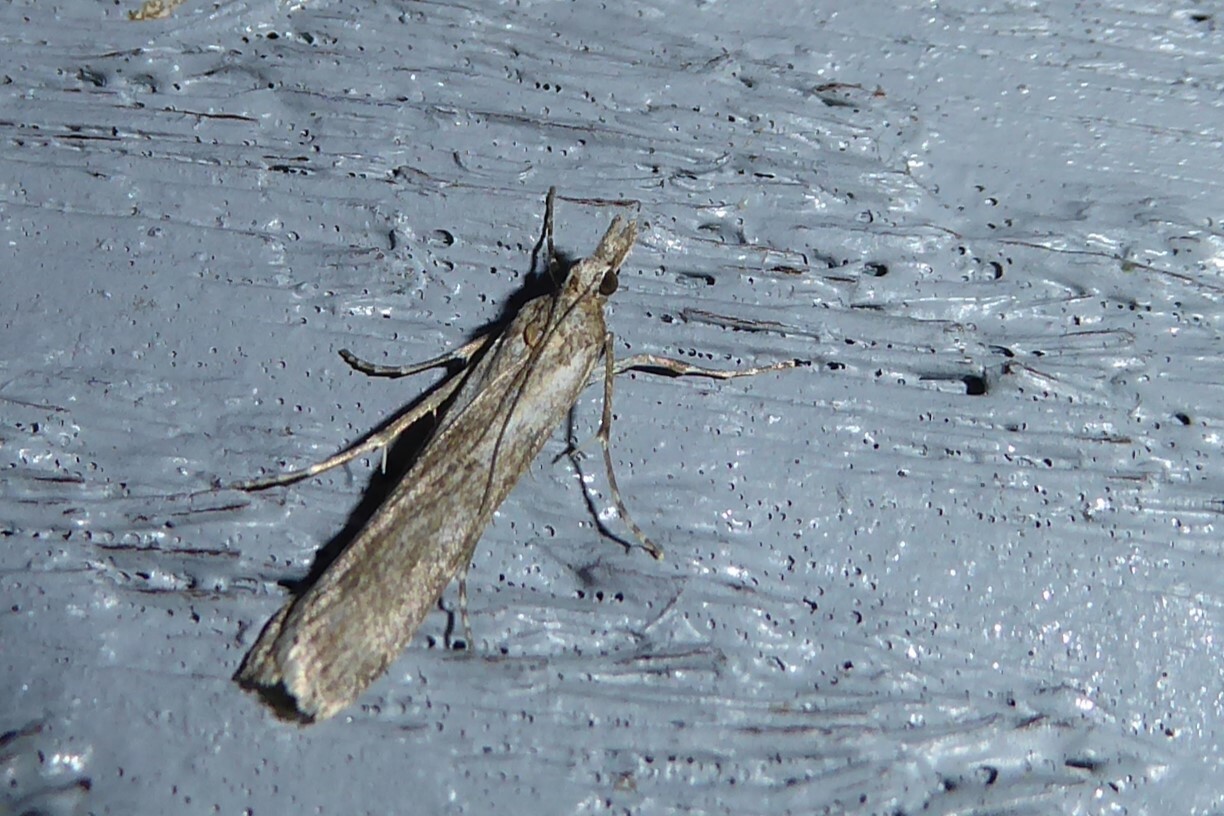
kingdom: Animalia
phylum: Arthropoda
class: Insecta
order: Lepidoptera
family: Crambidae
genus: Eudonia
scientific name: Eudonia leptalea
